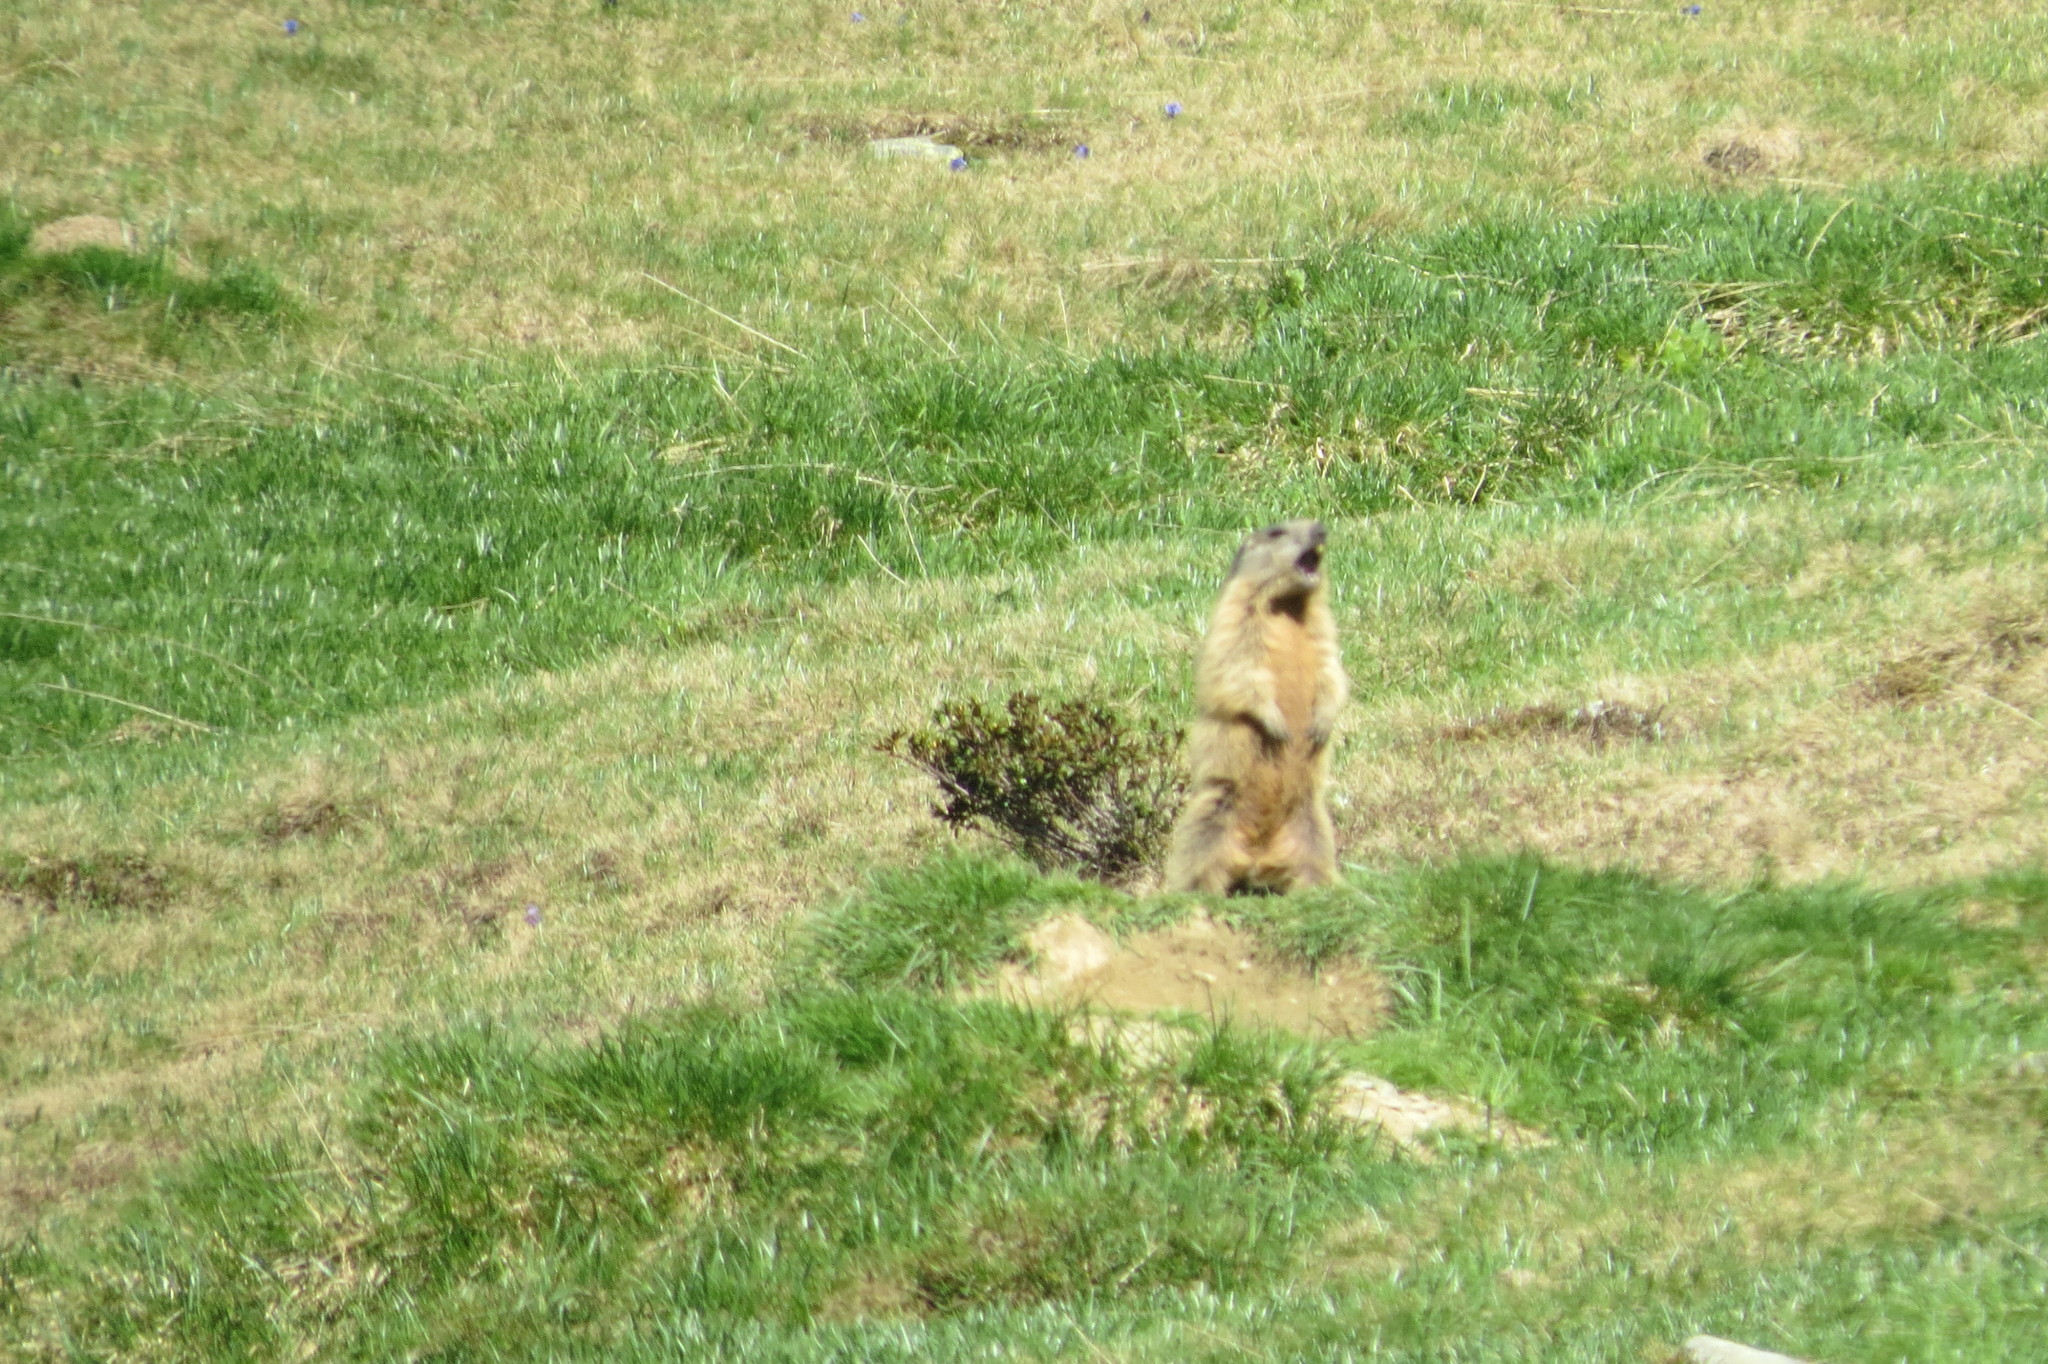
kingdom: Animalia
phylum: Chordata
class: Mammalia
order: Rodentia
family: Sciuridae
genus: Marmota
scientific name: Marmota marmota
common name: Alpine marmot
